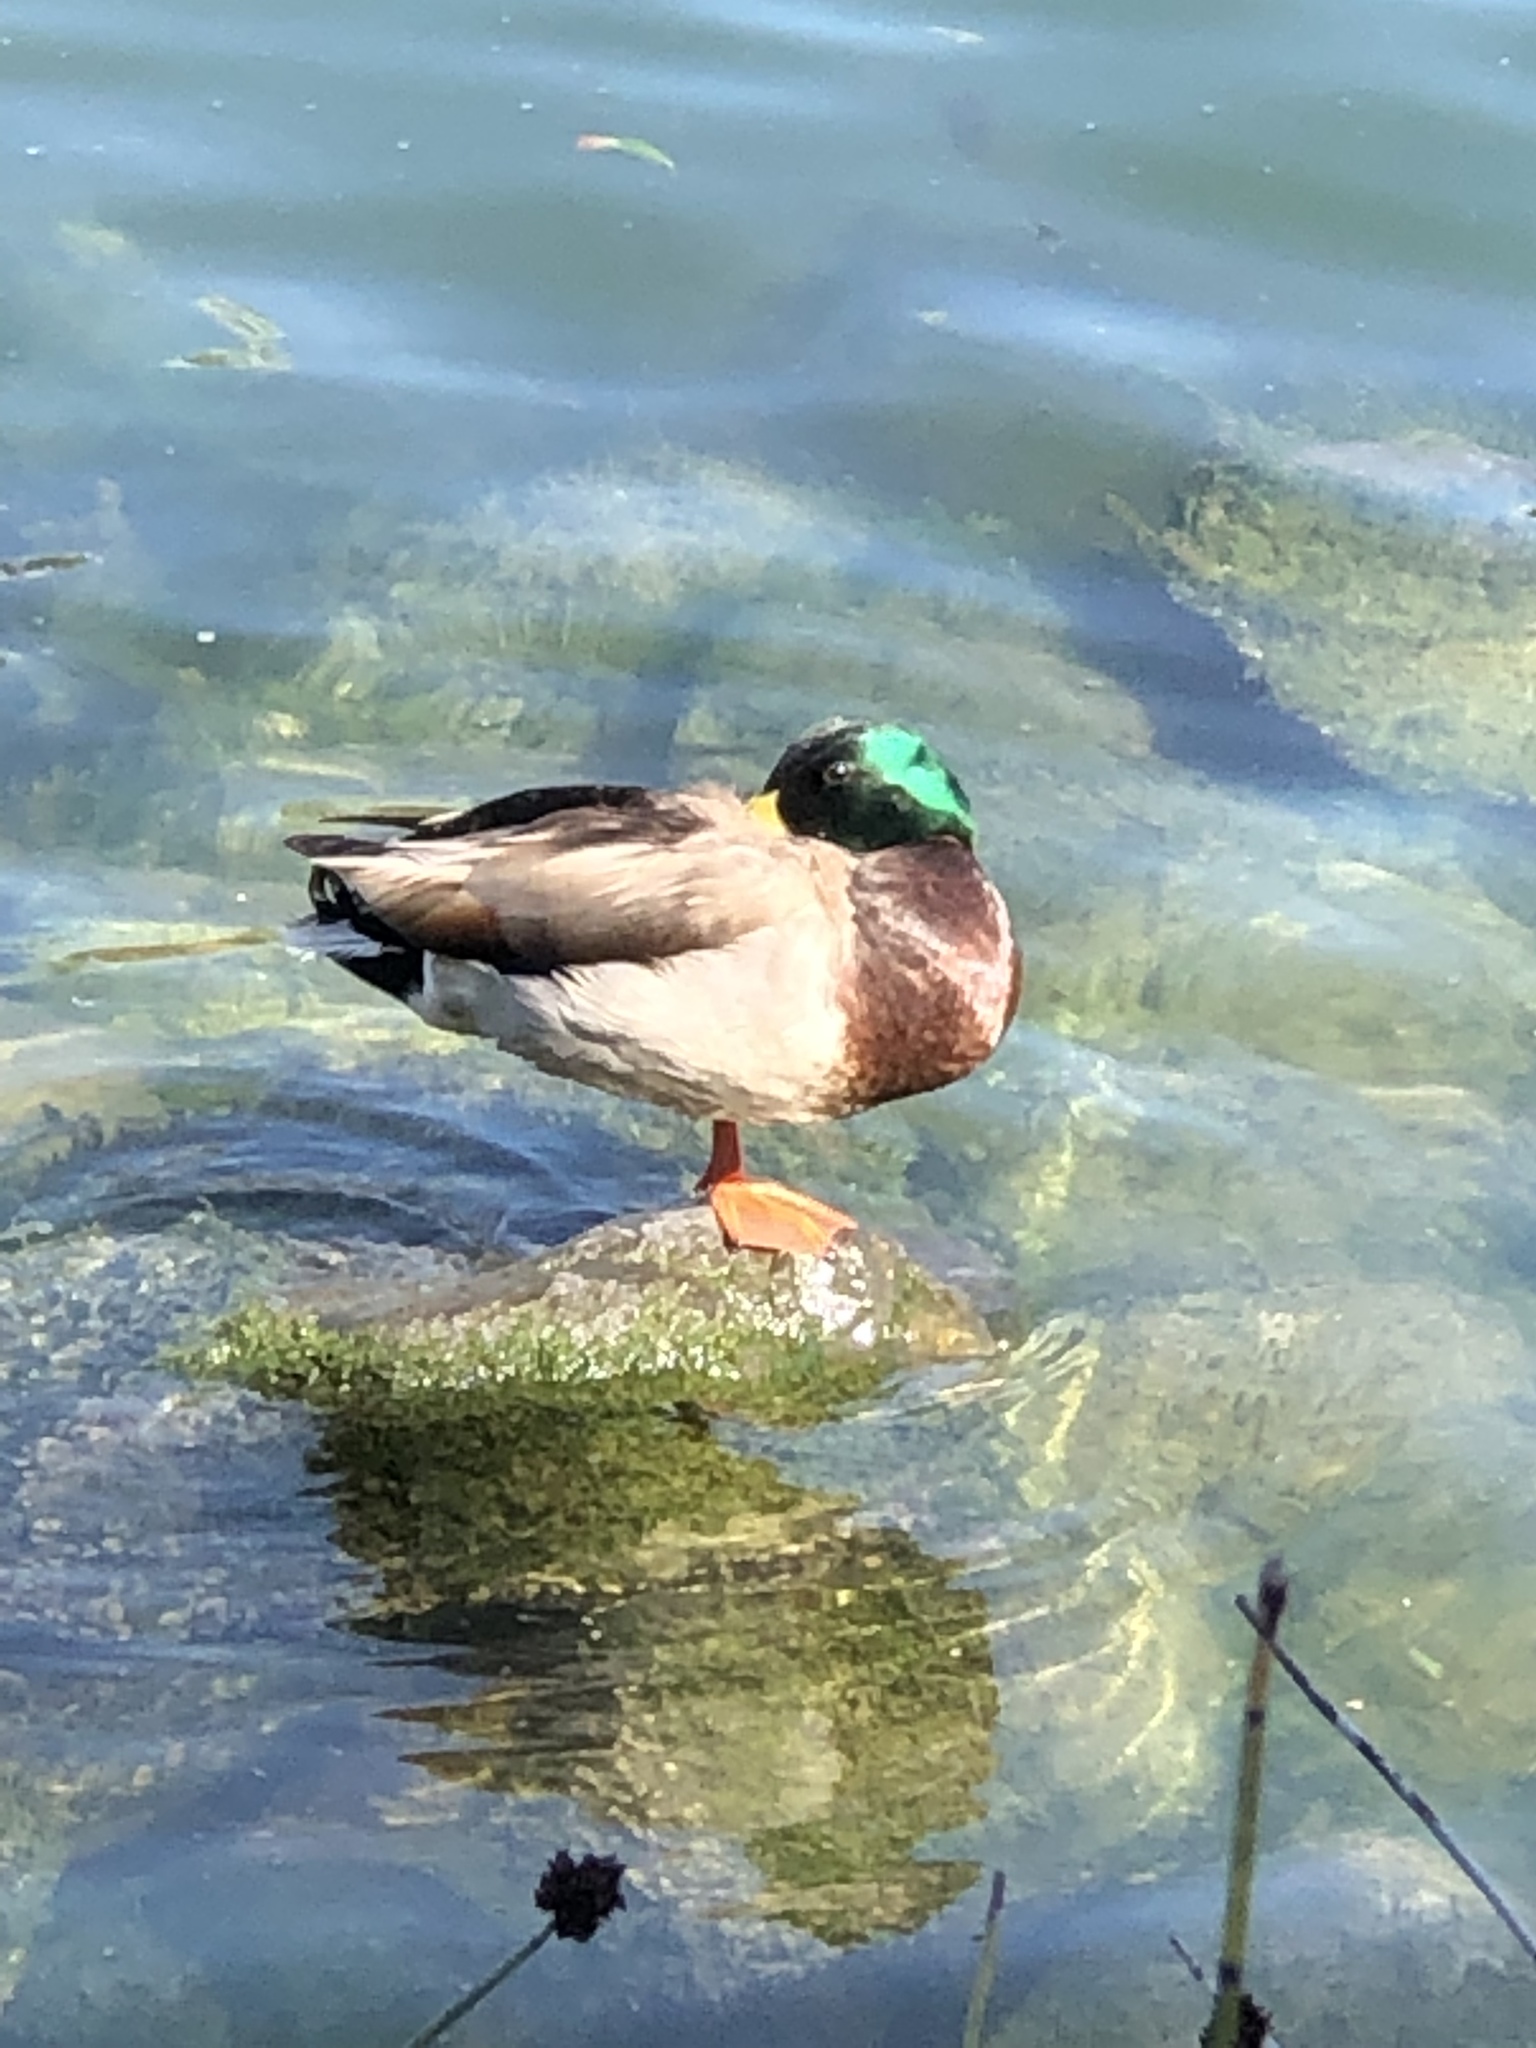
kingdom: Animalia
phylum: Chordata
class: Aves
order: Anseriformes
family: Anatidae
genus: Anas
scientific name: Anas platyrhynchos
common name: Mallard
